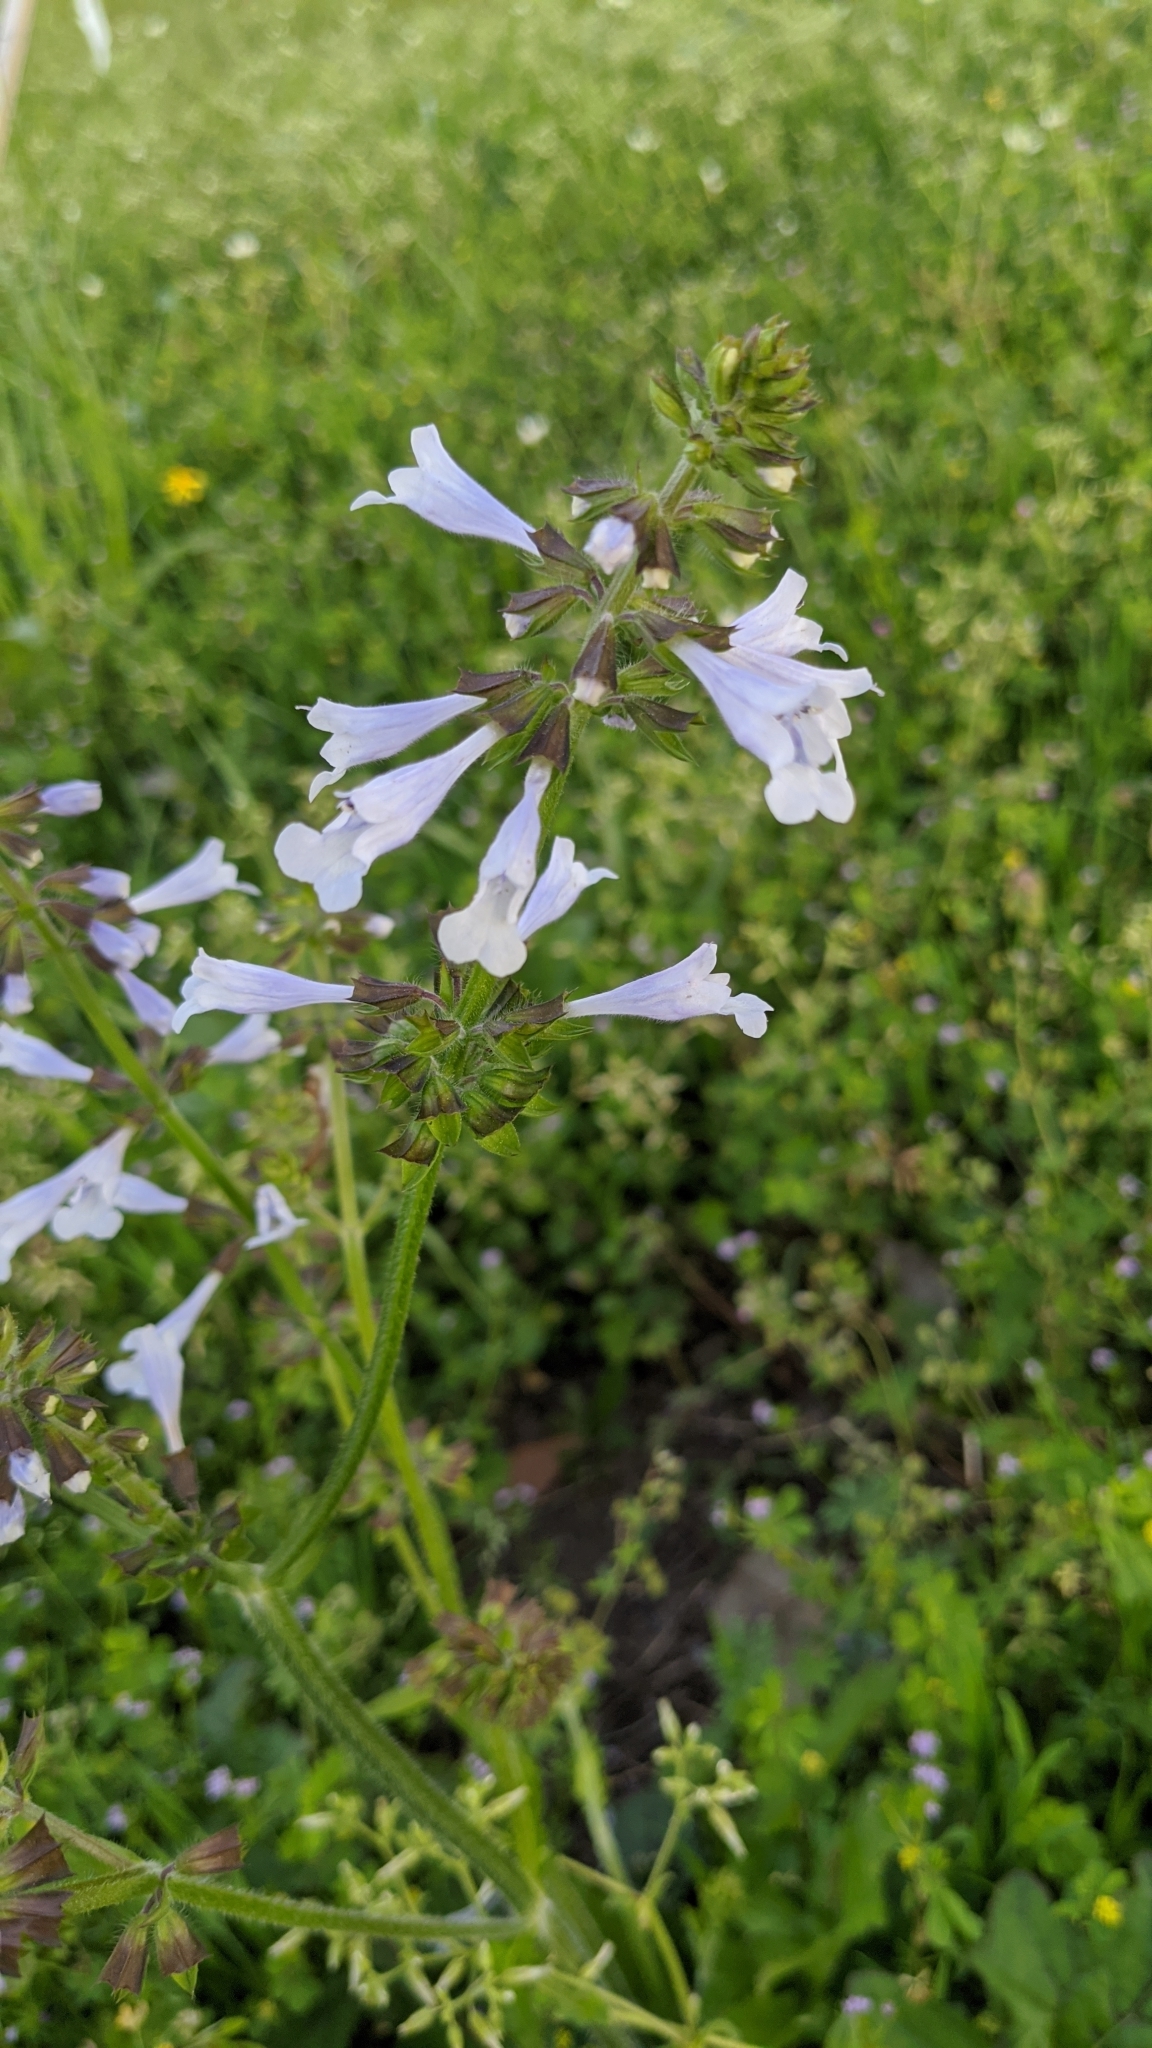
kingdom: Plantae
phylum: Tracheophyta
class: Magnoliopsida
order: Lamiales
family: Lamiaceae
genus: Salvia
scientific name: Salvia lyrata
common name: Cancerweed
